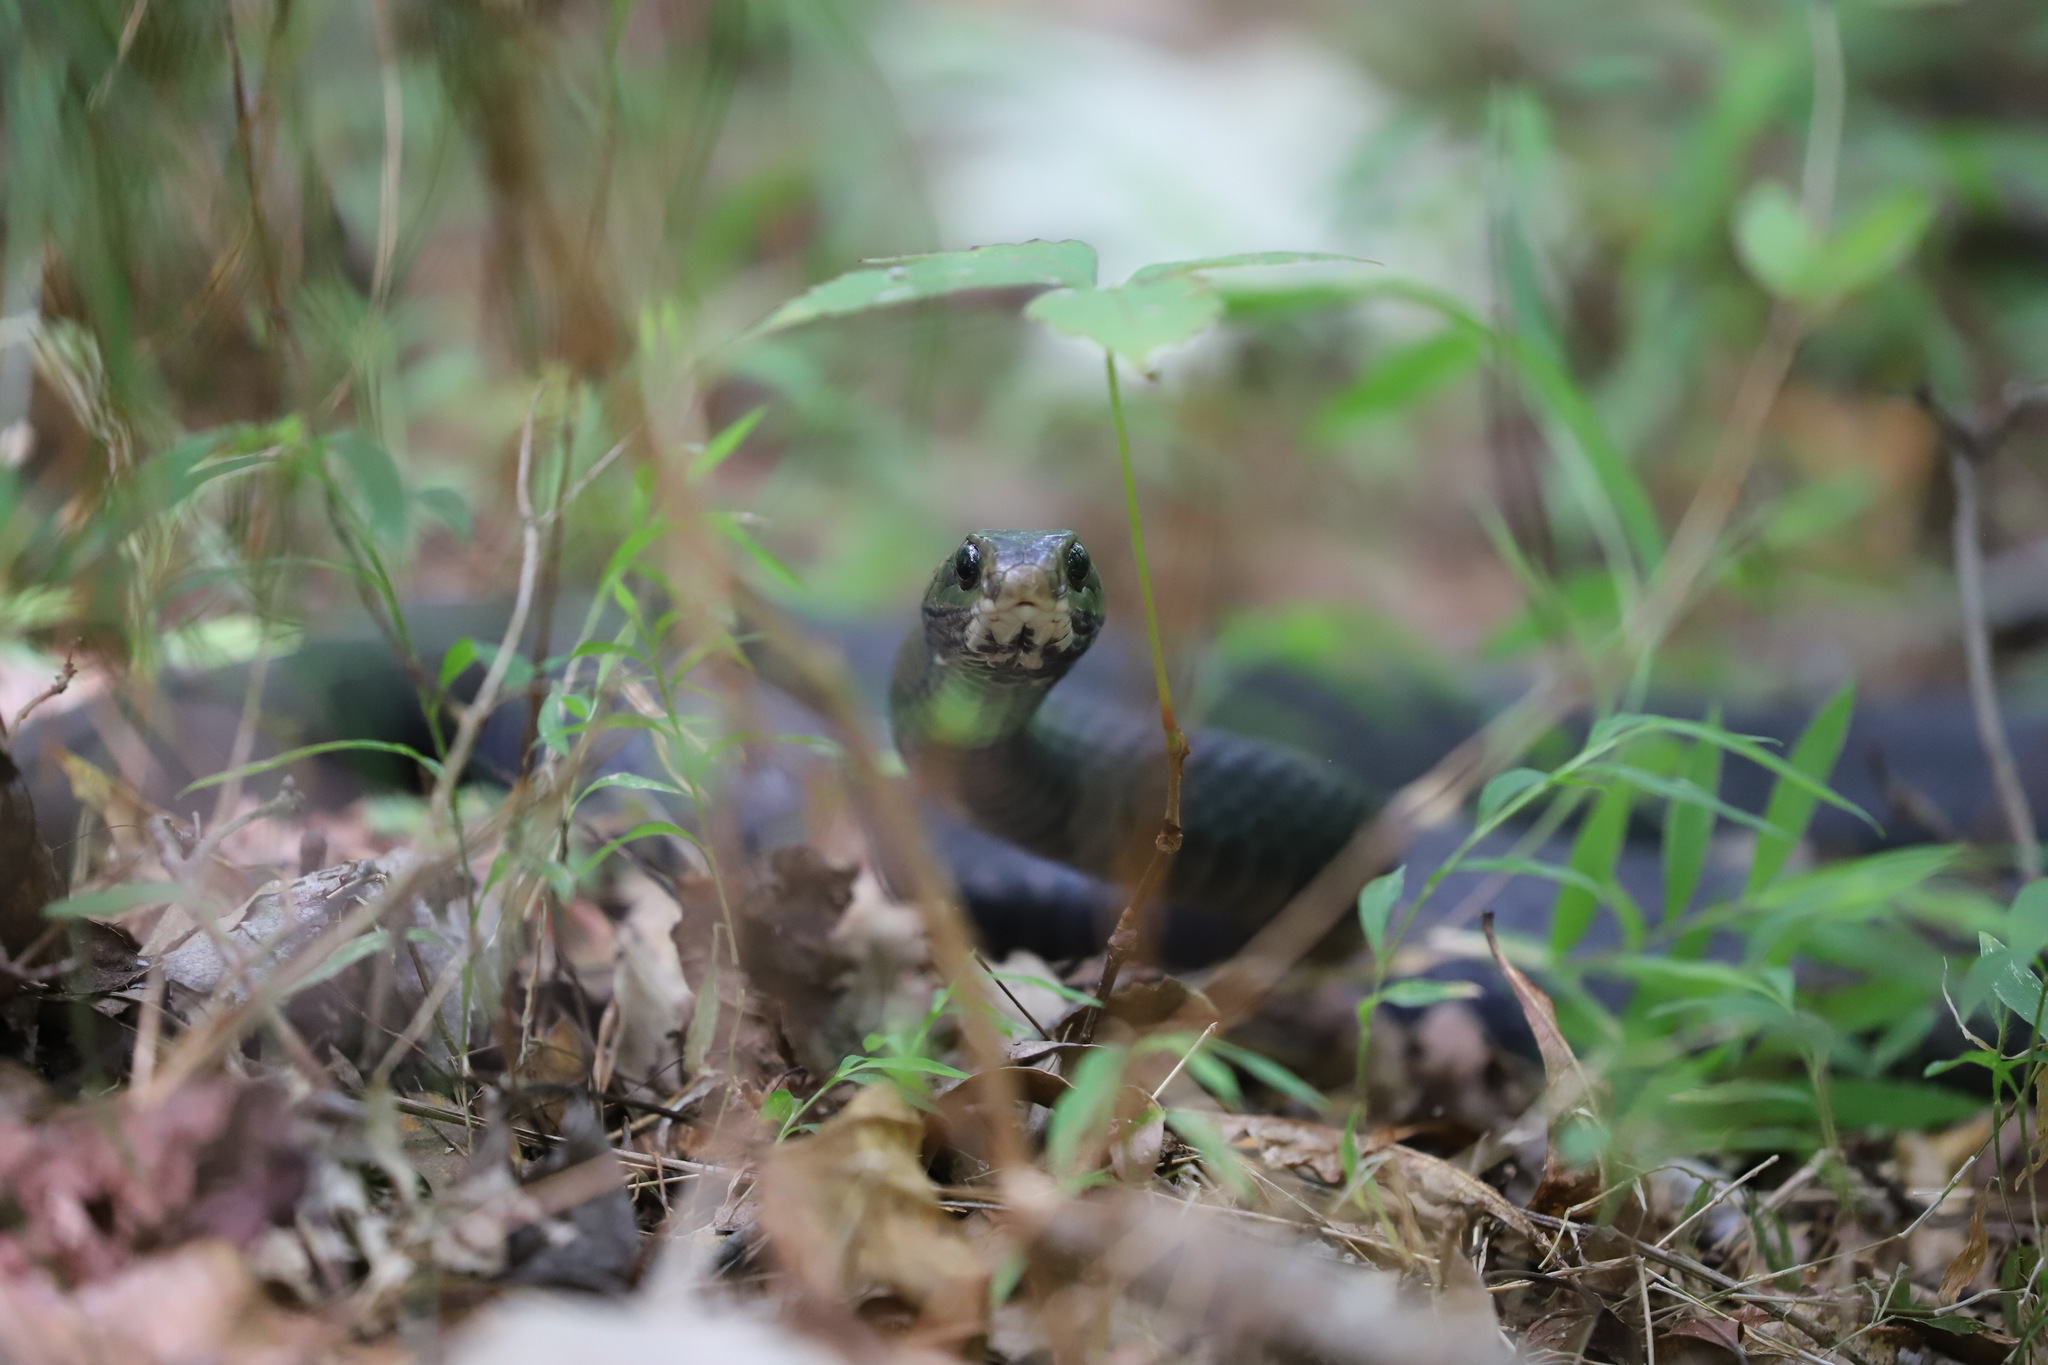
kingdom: Animalia
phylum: Chordata
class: Squamata
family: Colubridae
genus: Coluber
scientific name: Coluber constrictor
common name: Eastern racer
